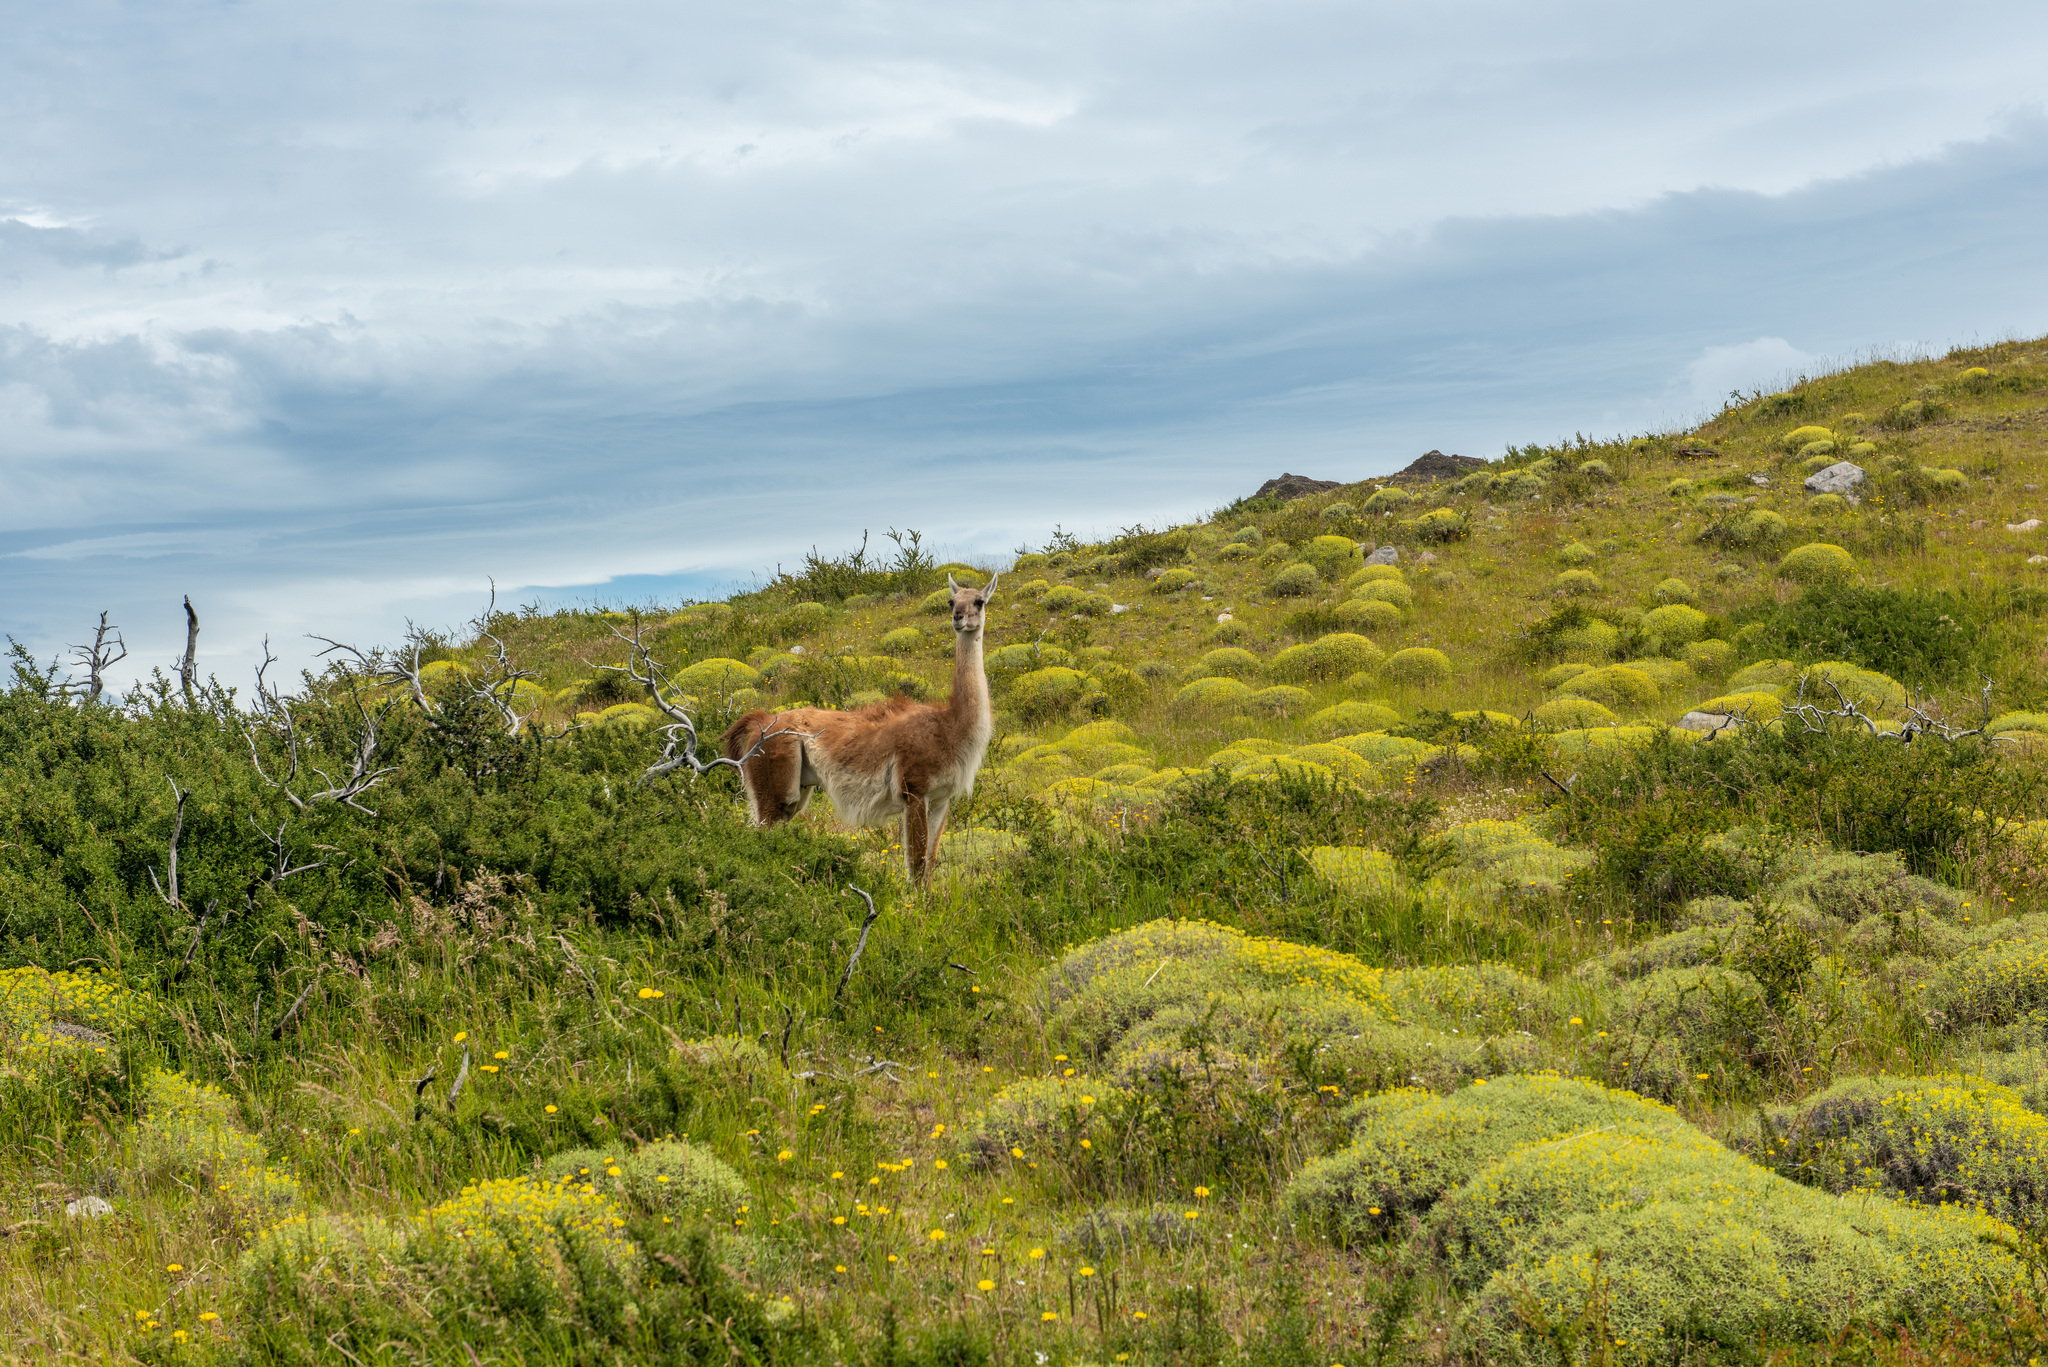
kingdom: Animalia
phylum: Chordata
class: Mammalia
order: Artiodactyla
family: Camelidae
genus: Lama
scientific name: Lama glama
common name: Llama
